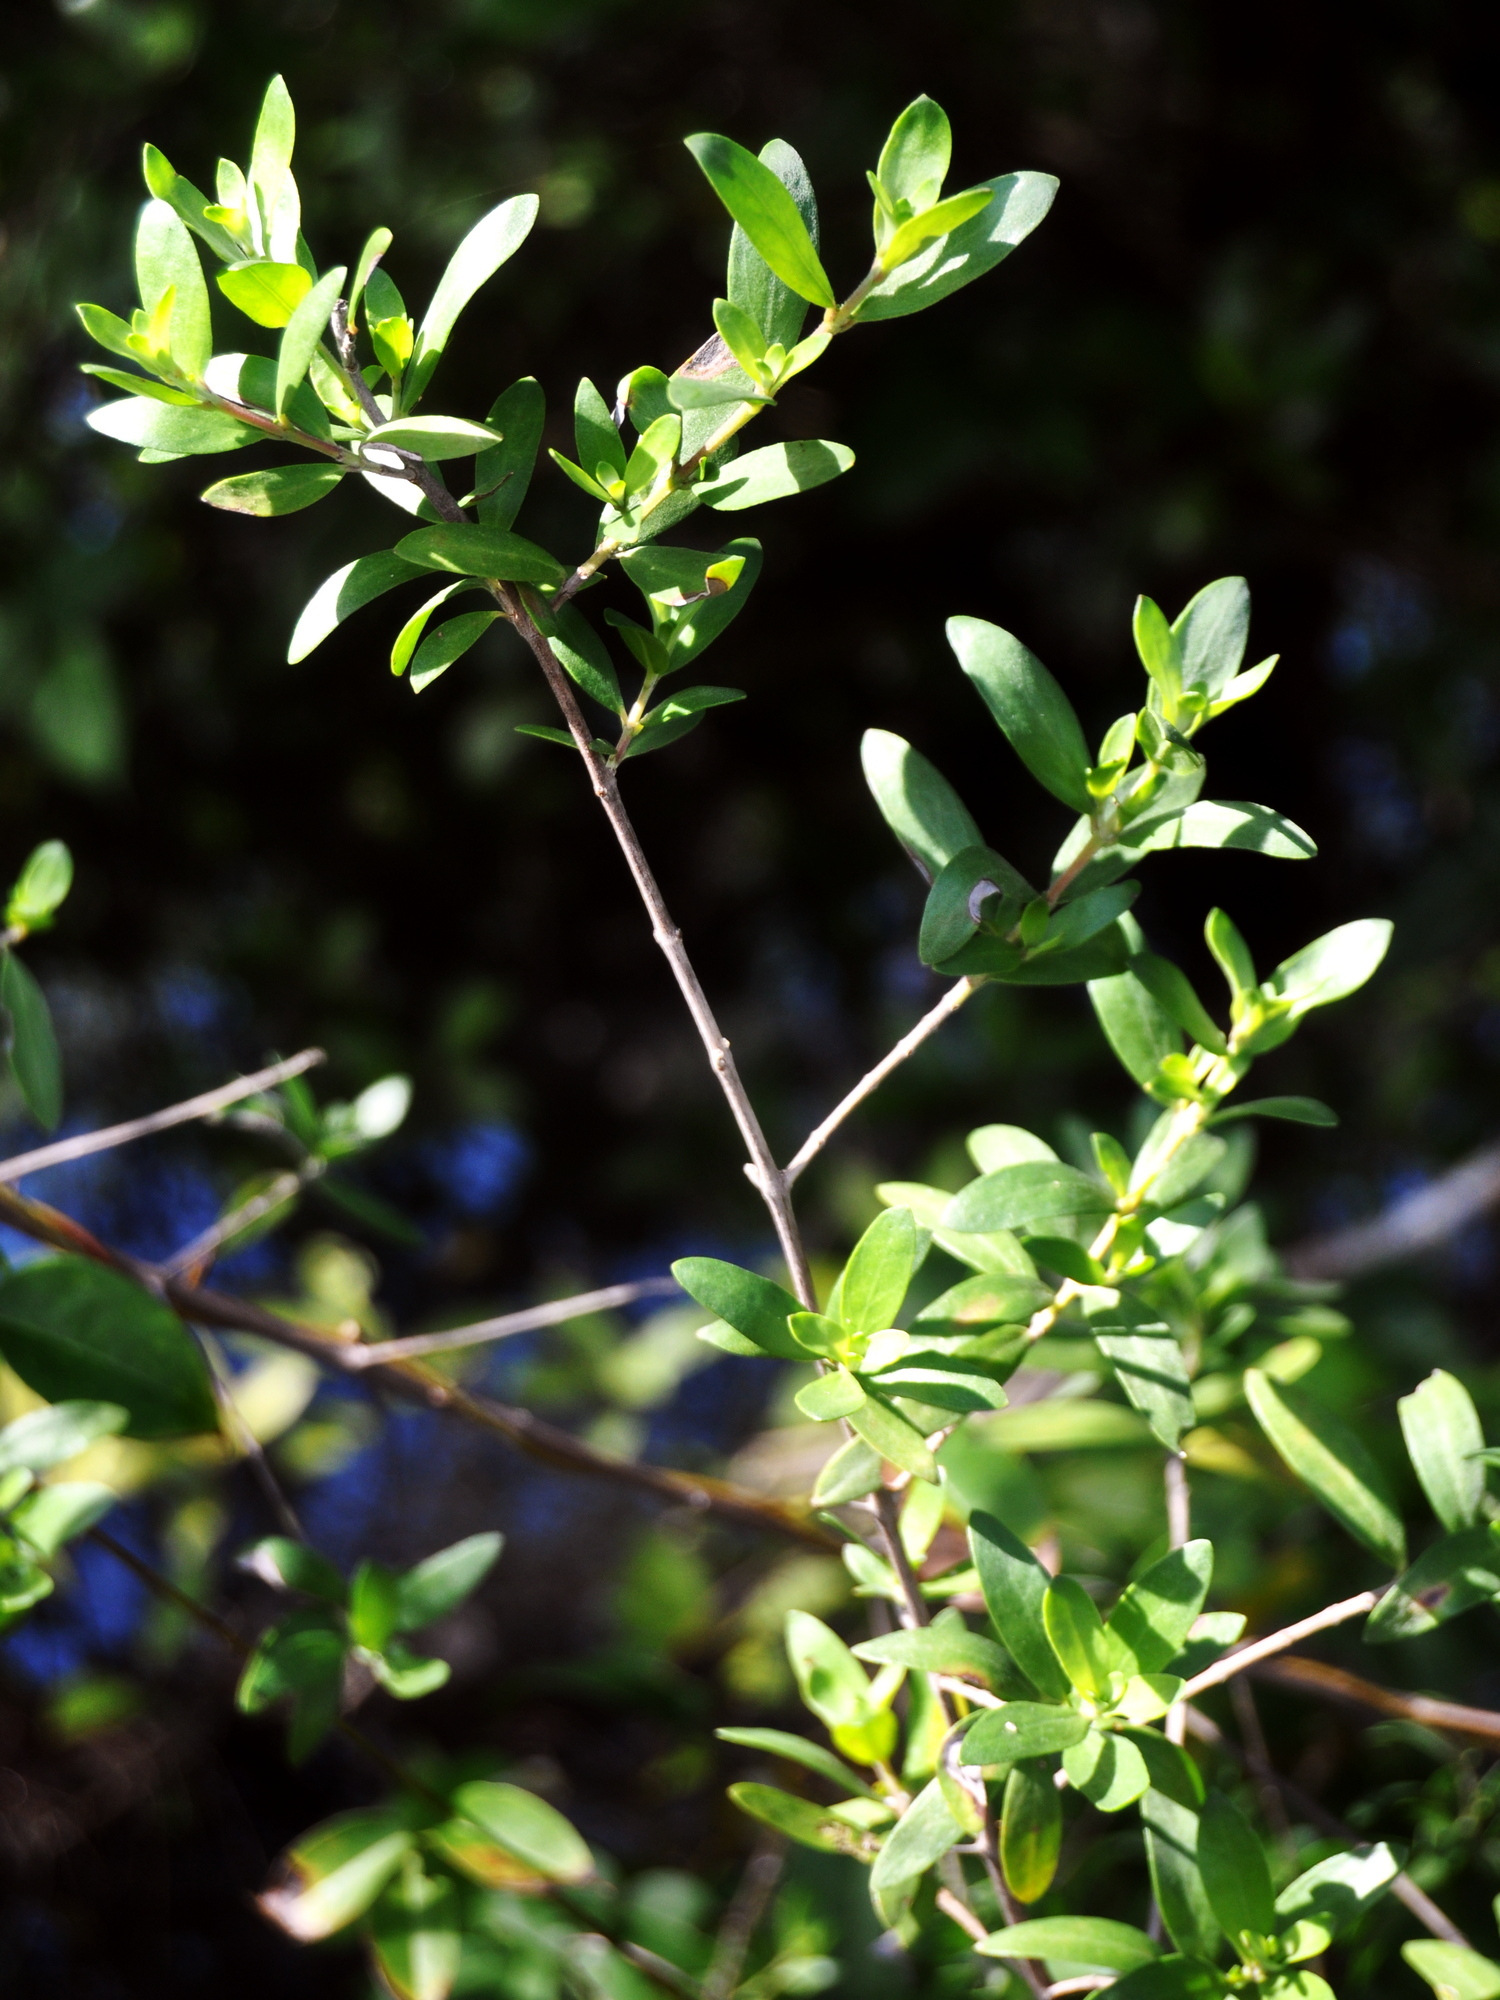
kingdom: Plantae
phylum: Tracheophyta
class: Magnoliopsida
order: Myrtales
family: Lythraceae
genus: Pemphis
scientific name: Pemphis acidula
